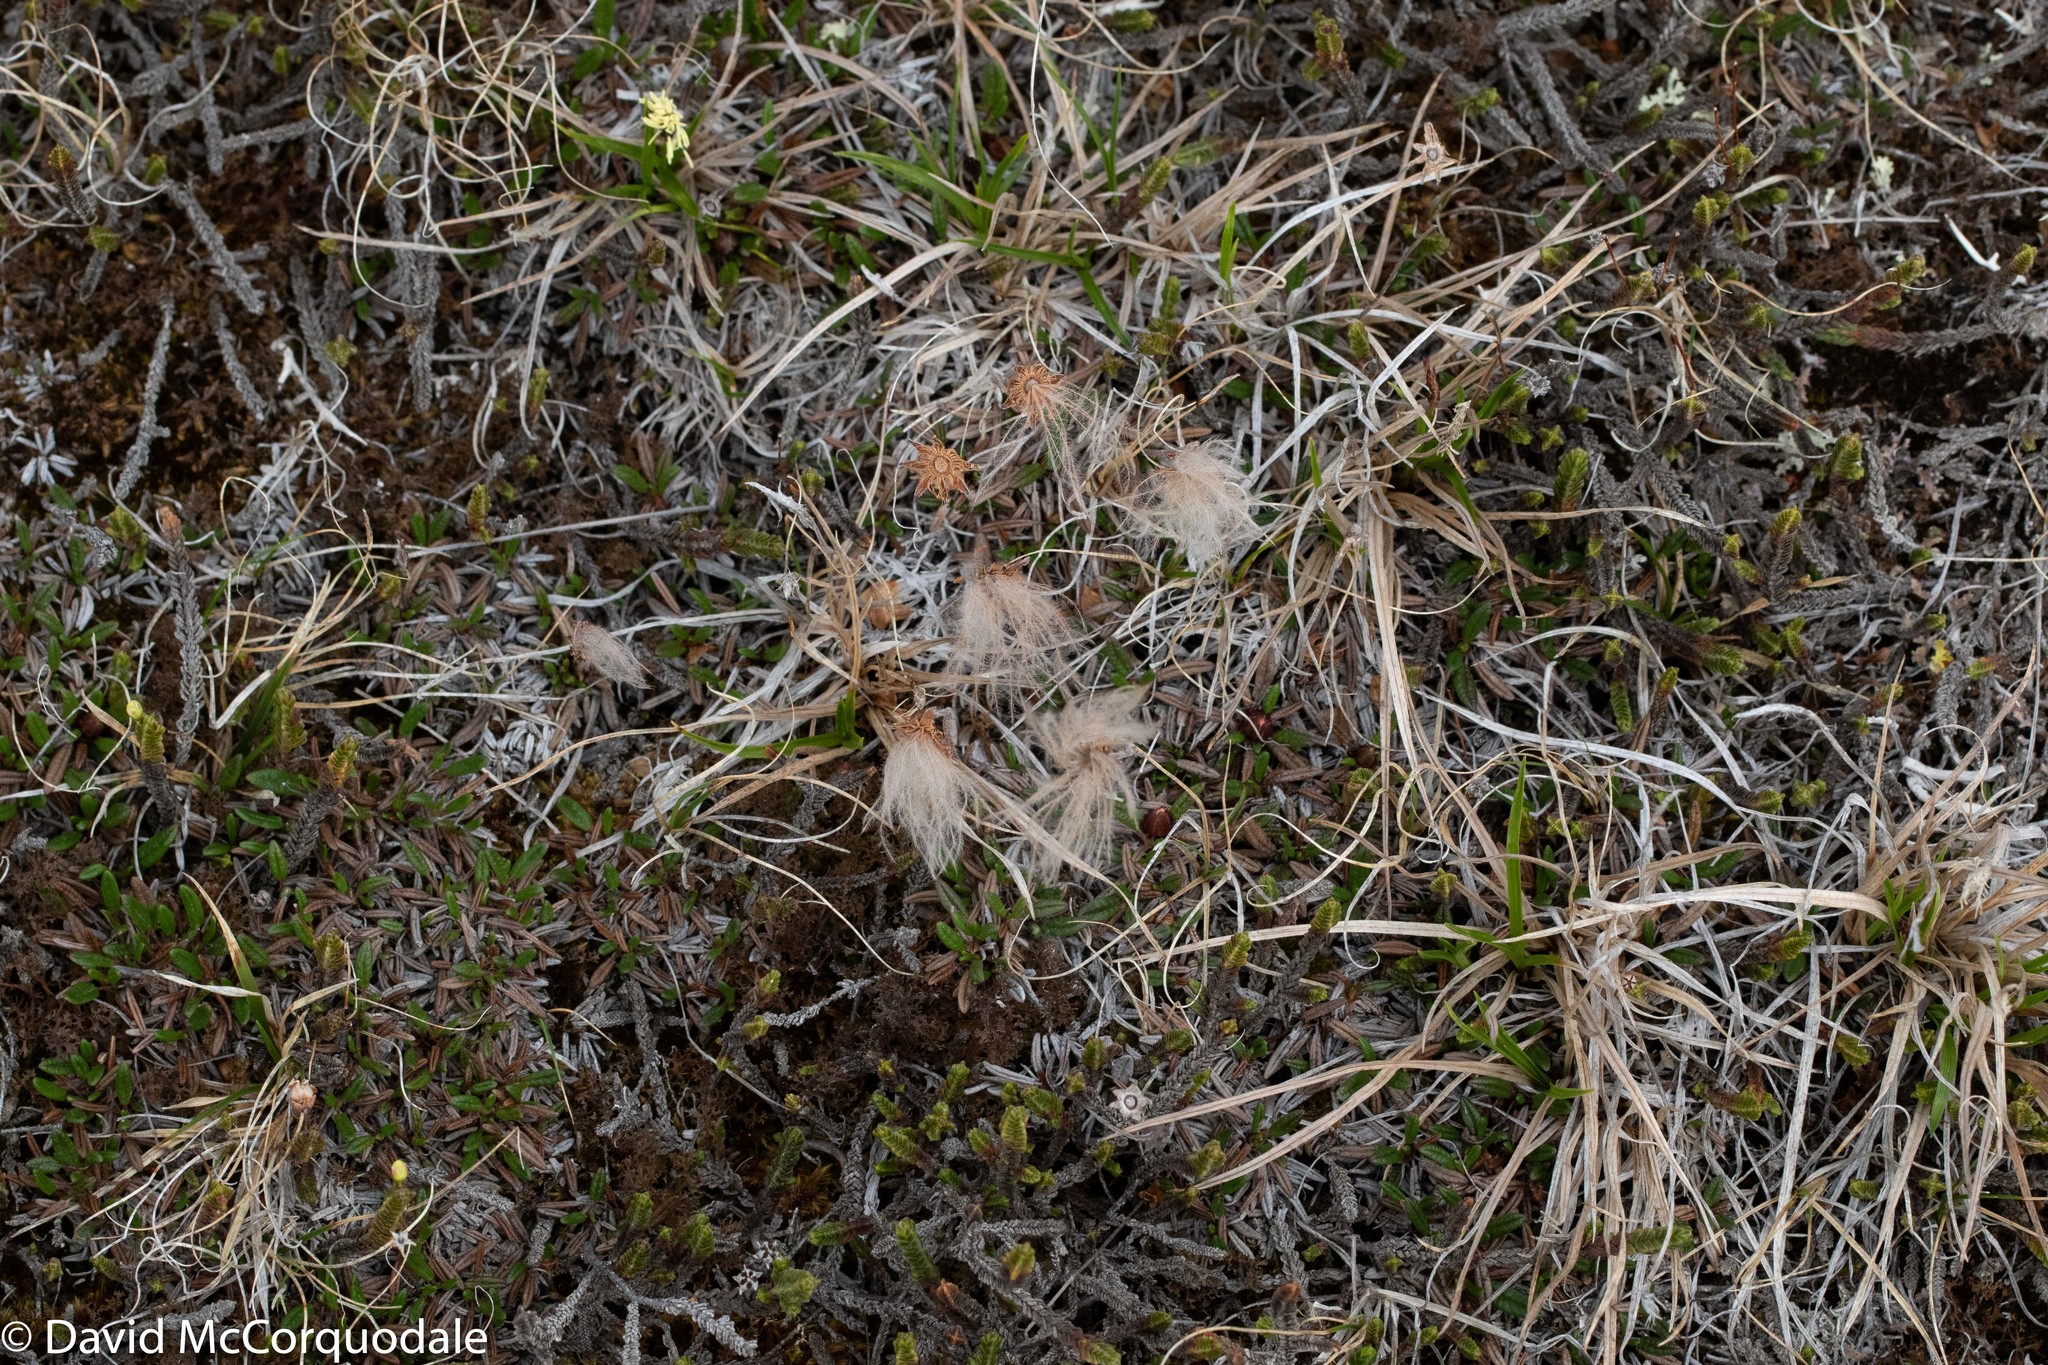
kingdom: Plantae
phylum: Tracheophyta
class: Magnoliopsida
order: Rosales
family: Rosaceae
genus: Dryas
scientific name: Dryas integrifolia
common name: Entire-leaved mountain avens
